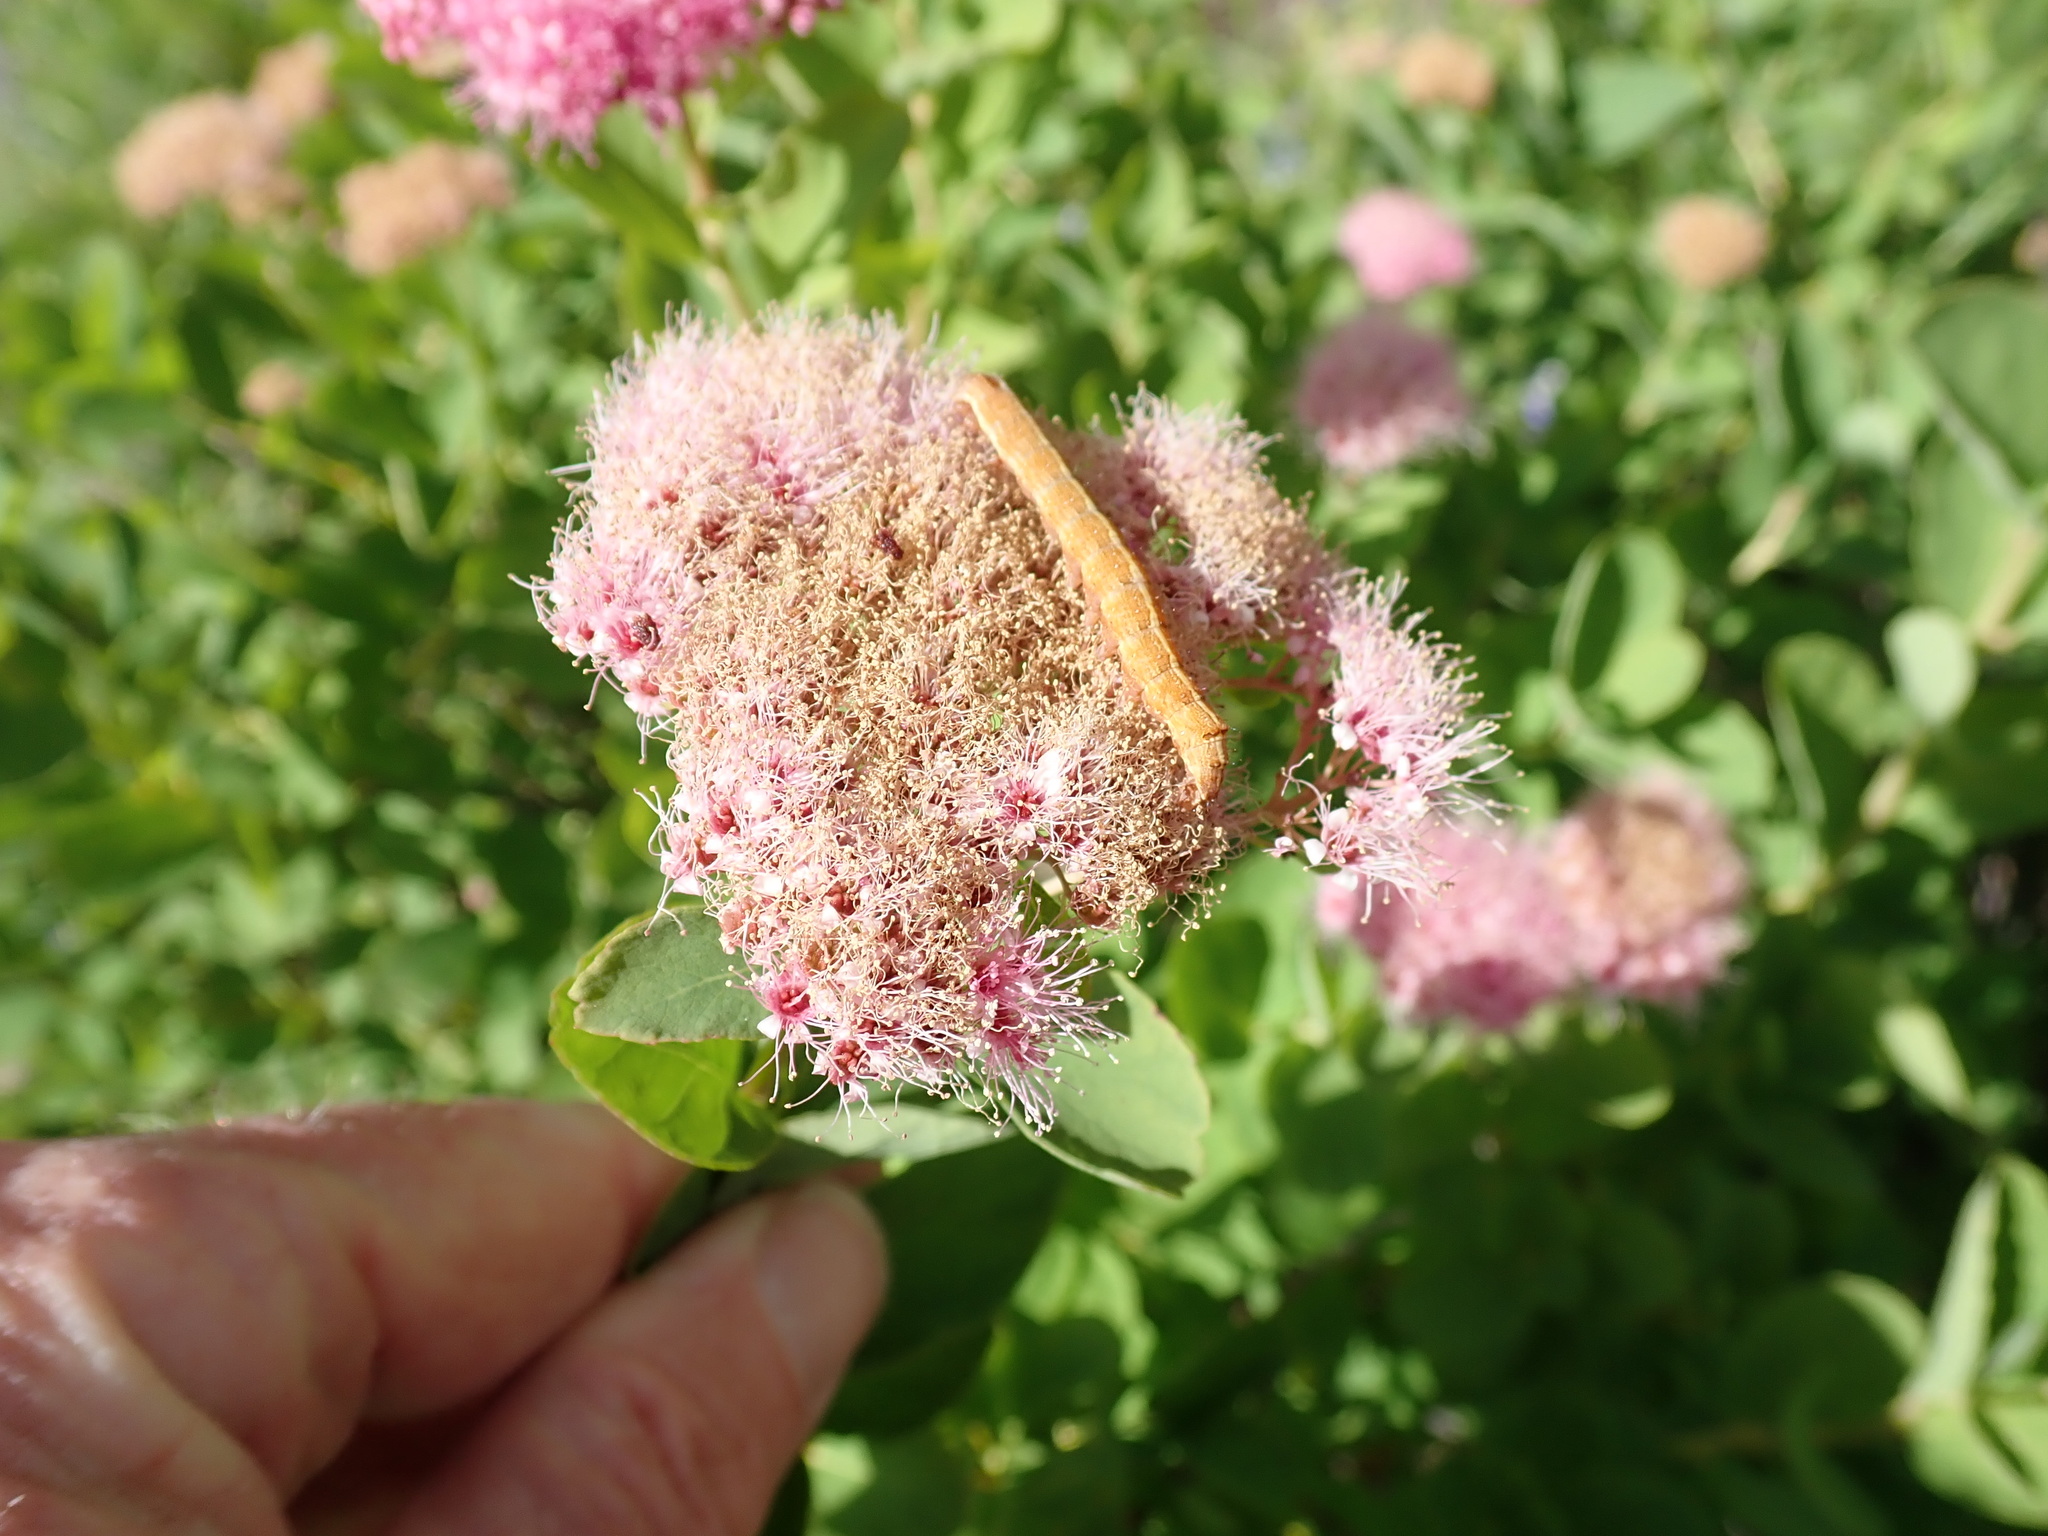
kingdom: Plantae
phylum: Tracheophyta
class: Magnoliopsida
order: Rosales
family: Rosaceae
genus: Spiraea
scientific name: Spiraea splendens
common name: Subalpine meadowsweet
